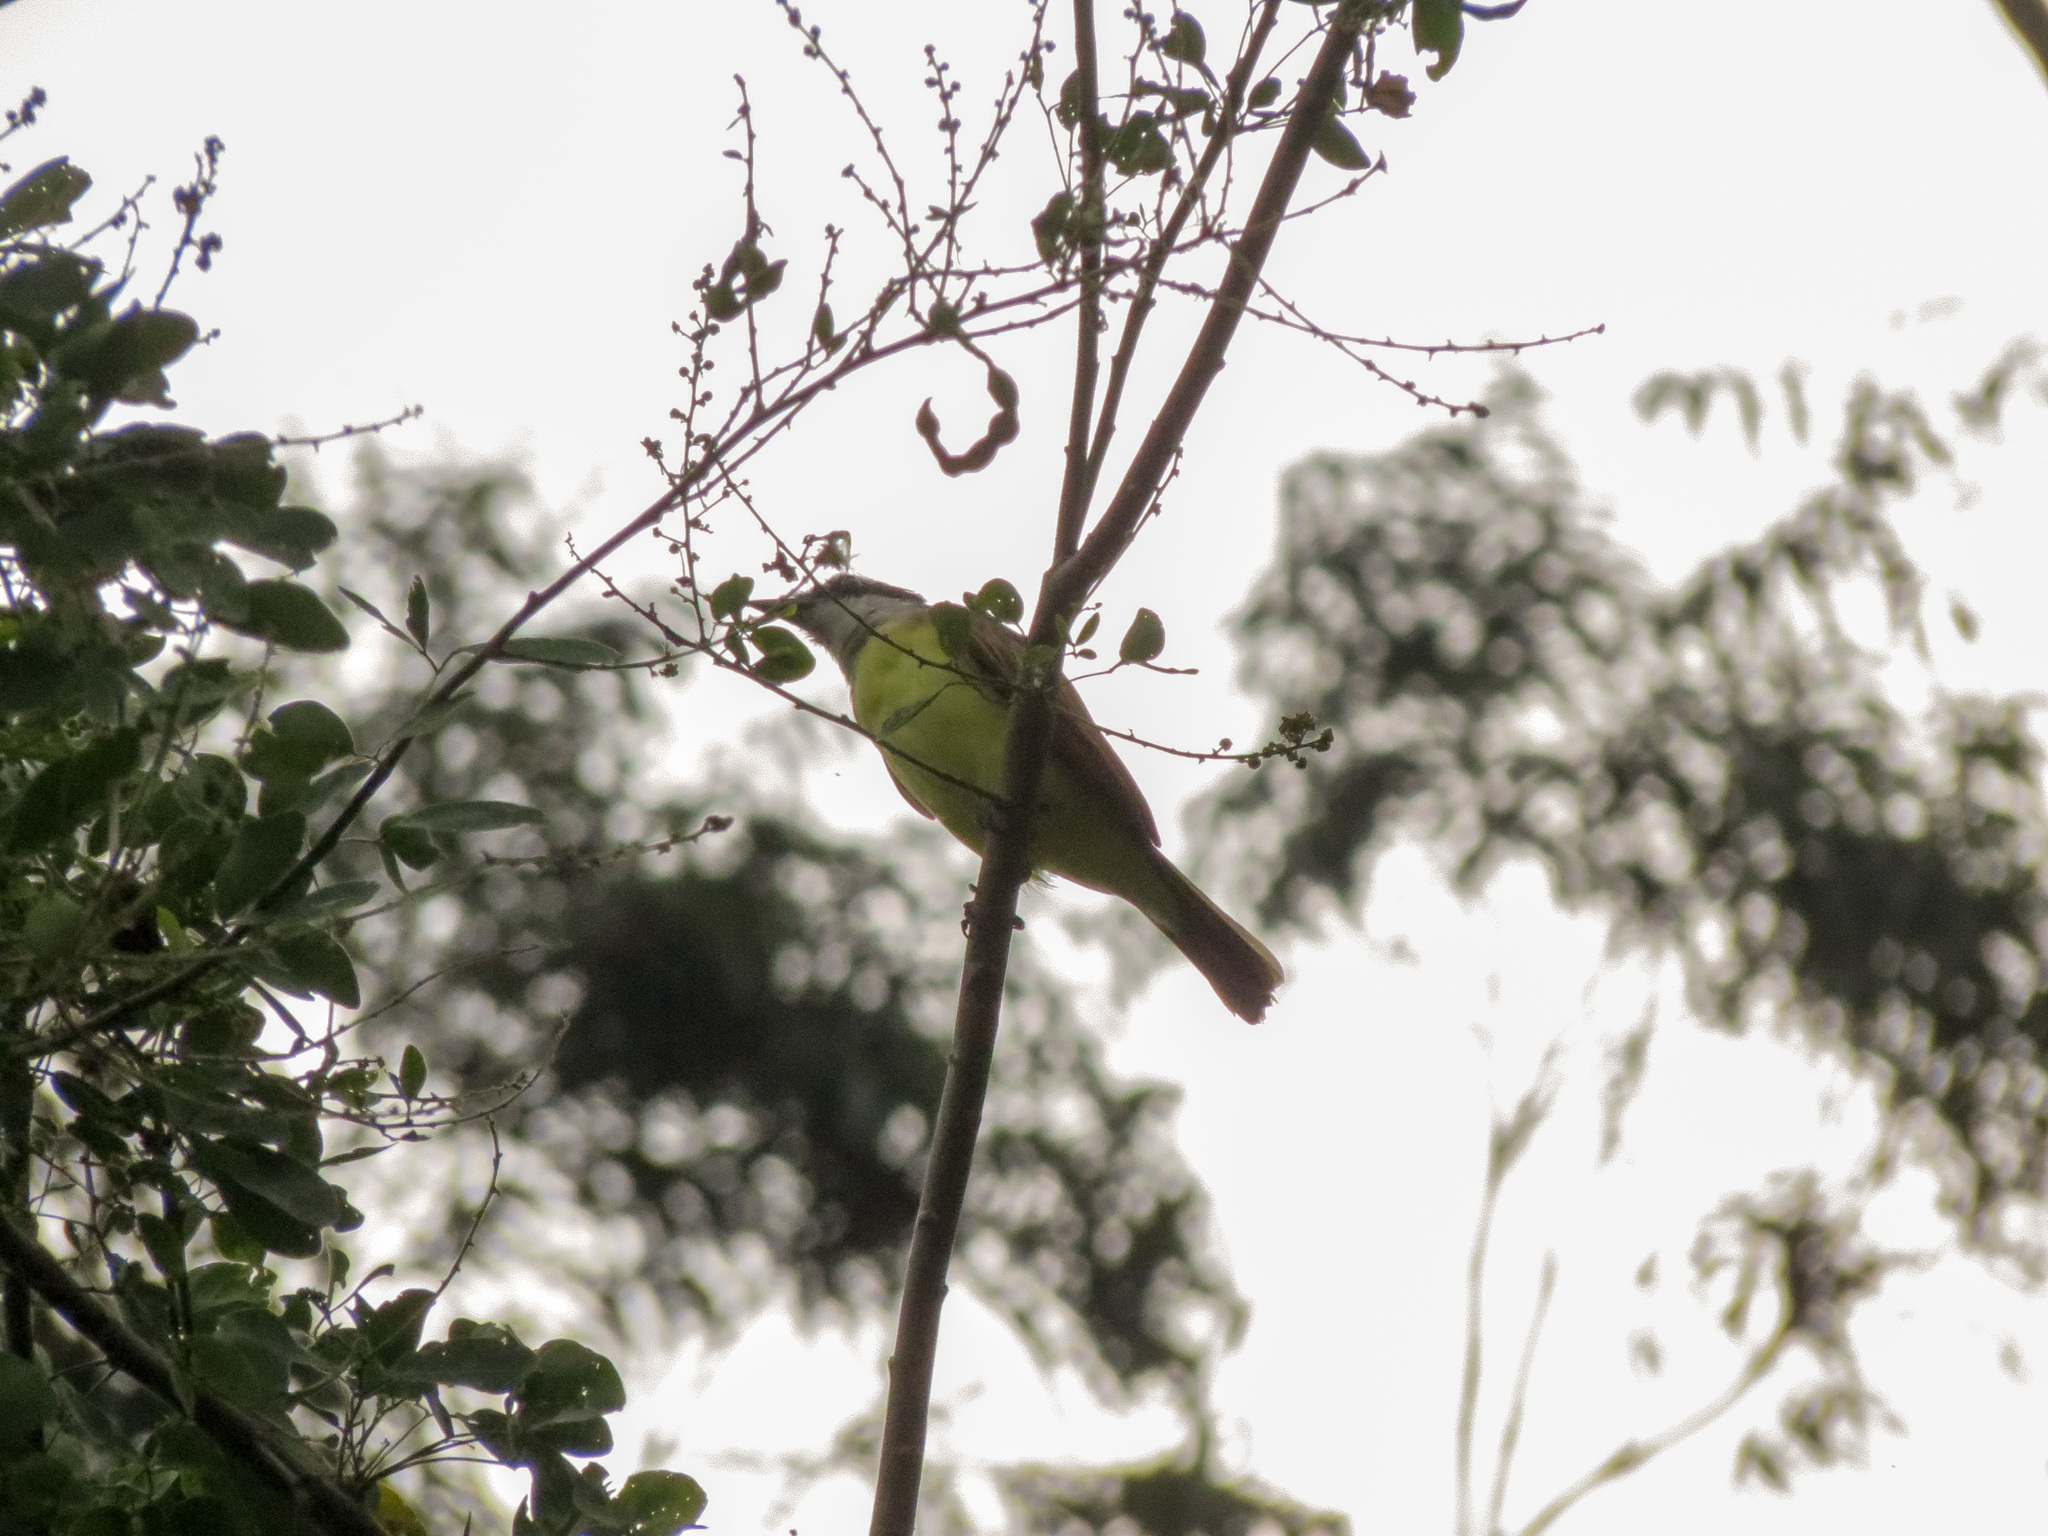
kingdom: Animalia
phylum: Chordata
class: Aves
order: Passeriformes
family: Tyrannidae
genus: Pitangus
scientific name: Pitangus sulphuratus
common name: Great kiskadee
